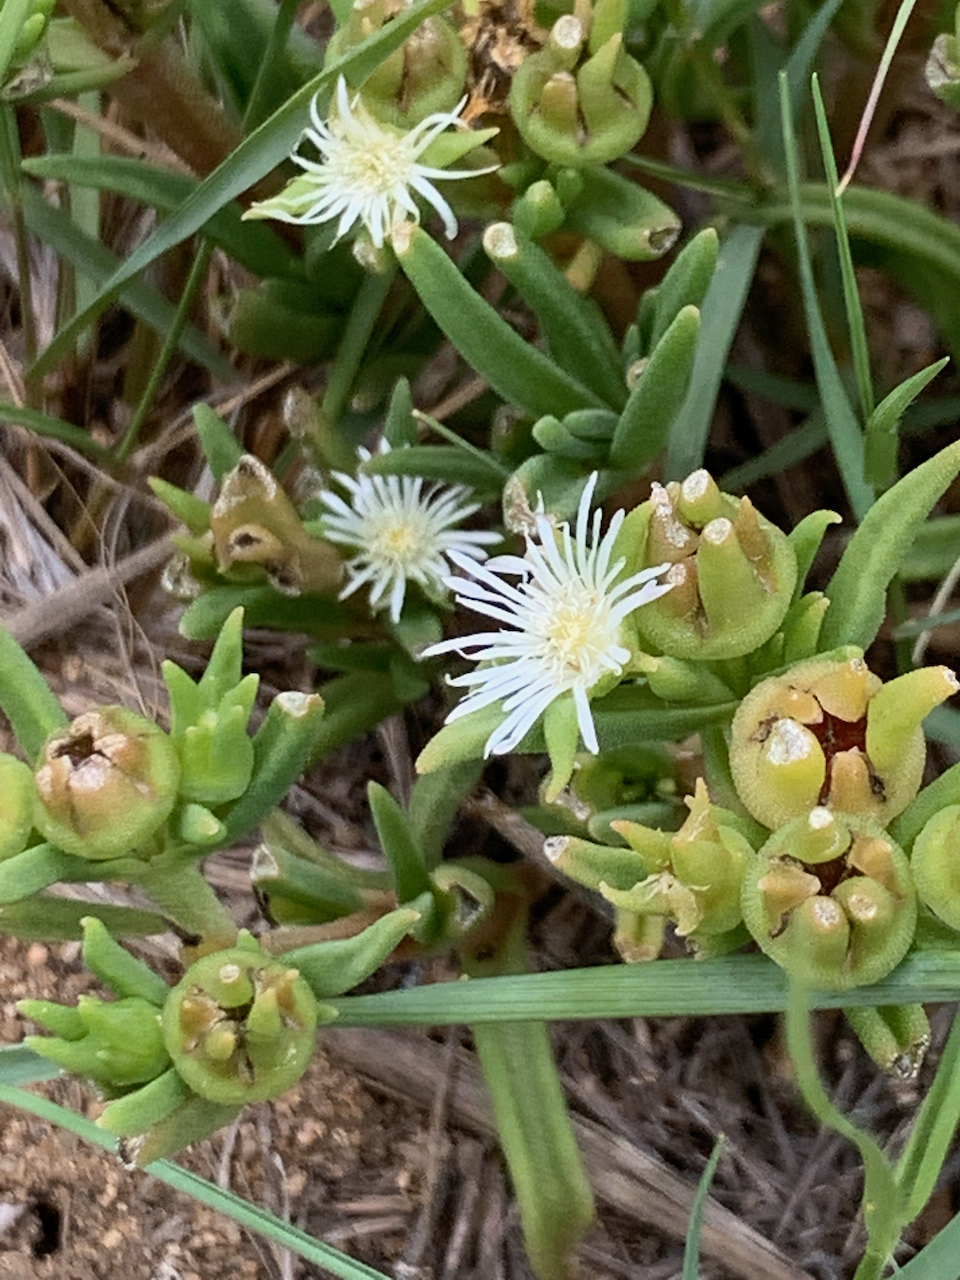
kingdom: Plantae
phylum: Tracheophyta
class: Magnoliopsida
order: Caryophyllales
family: Aizoaceae
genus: Delosperma
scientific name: Delosperma herbeum
